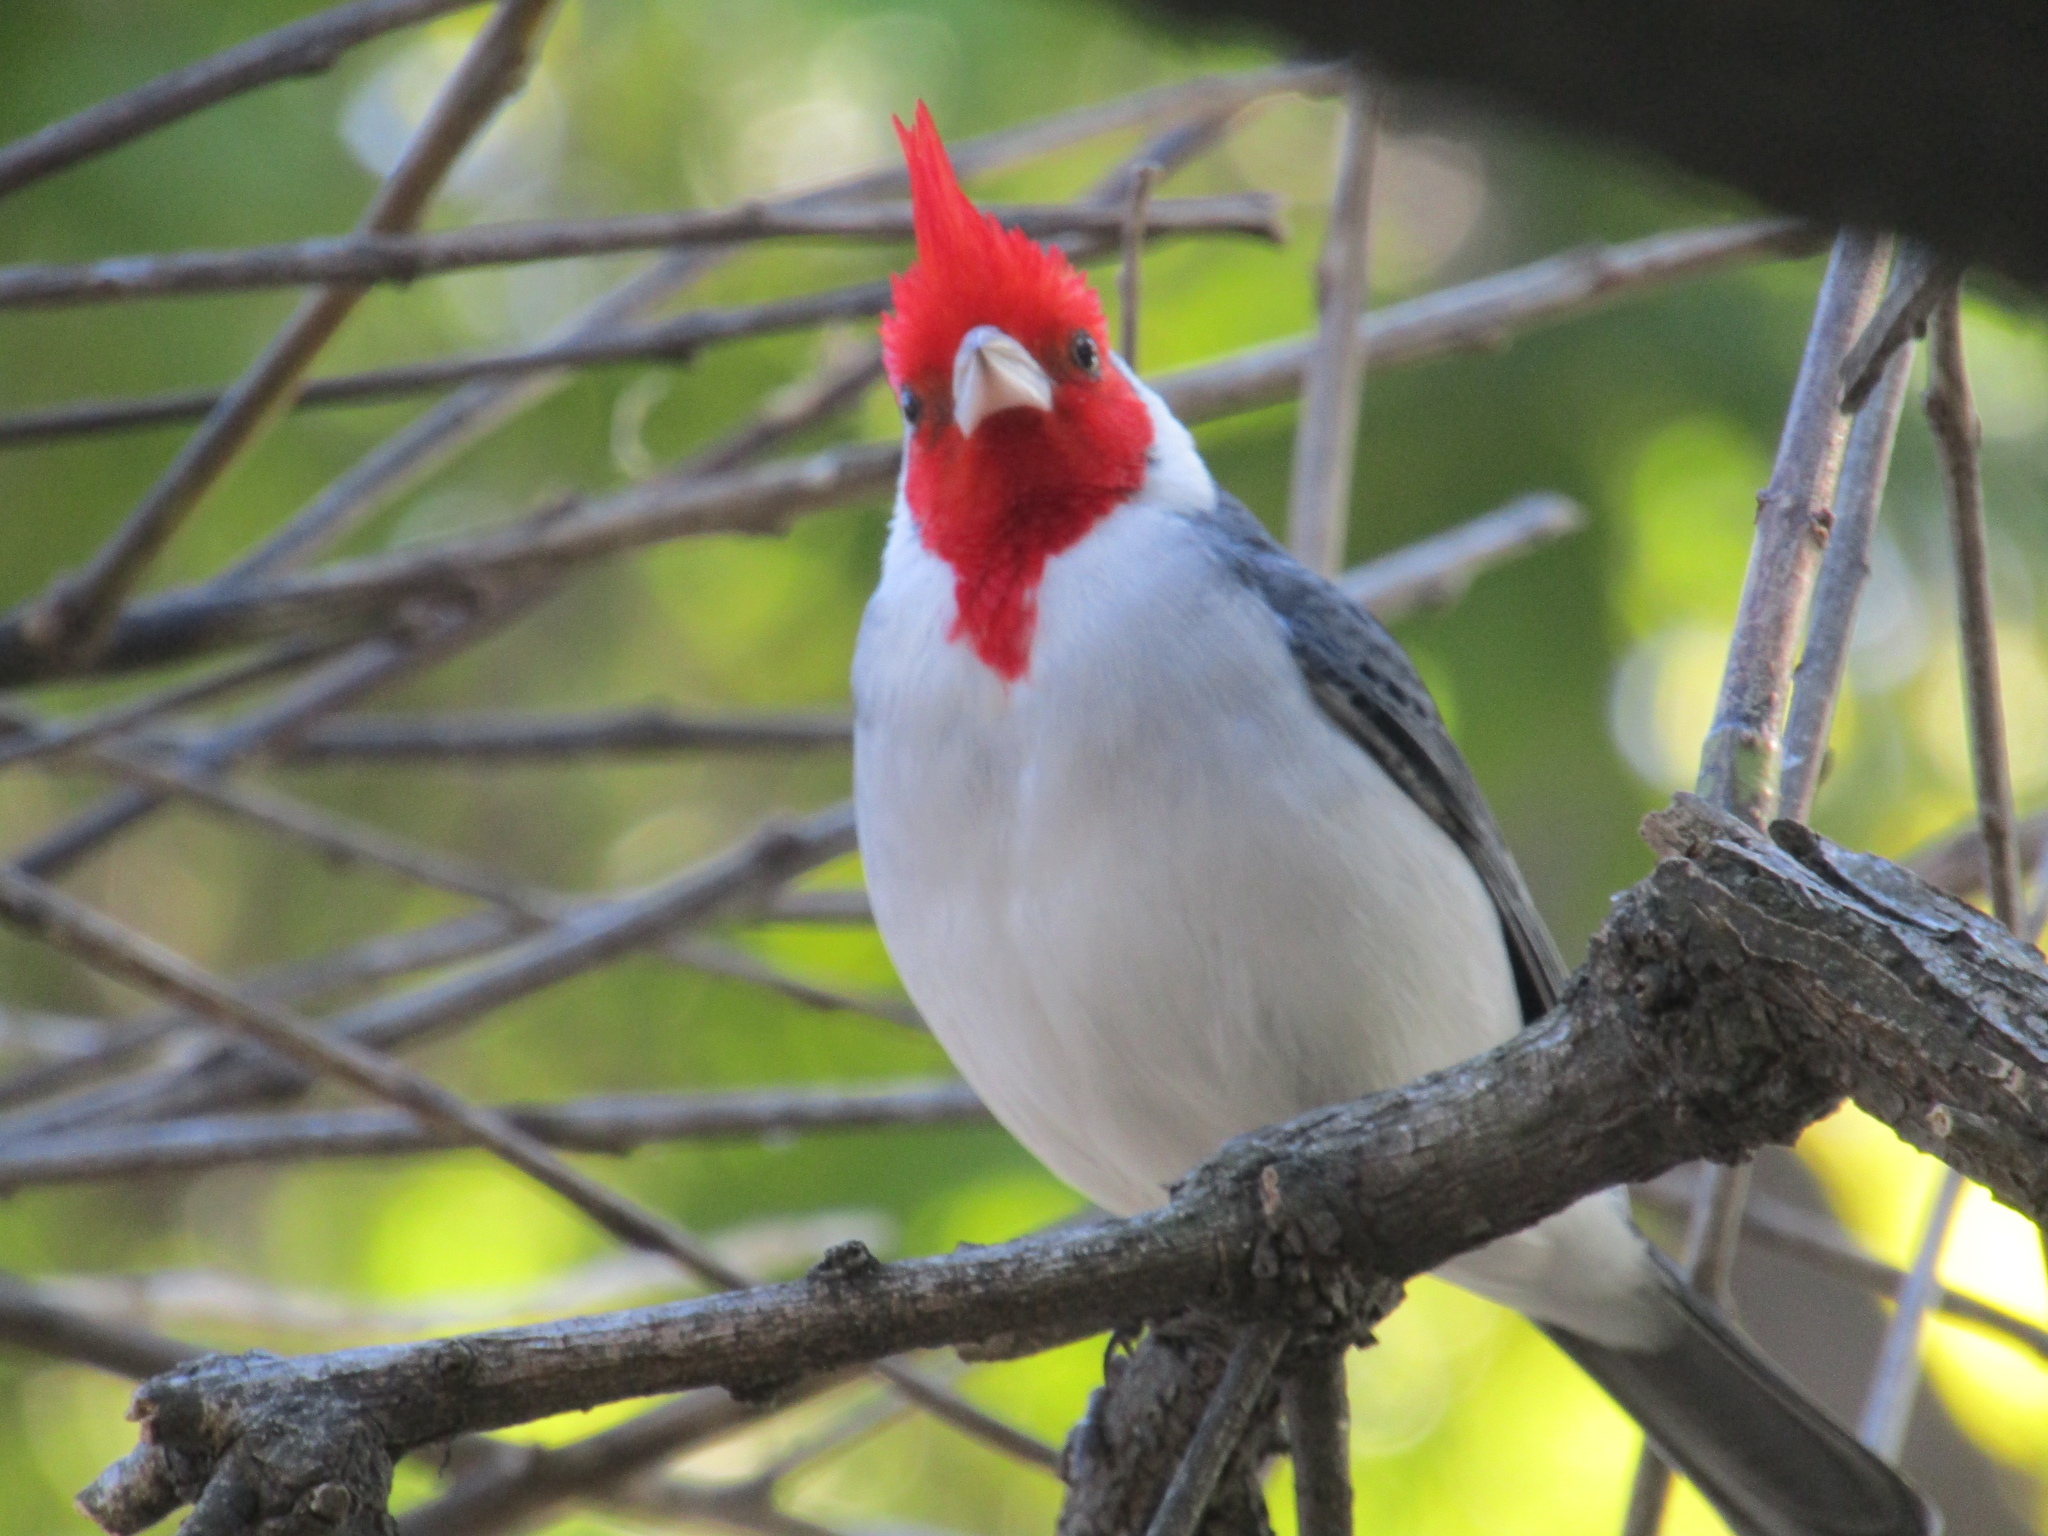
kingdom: Animalia
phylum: Chordata
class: Aves
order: Passeriformes
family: Thraupidae
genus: Paroaria
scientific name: Paroaria coronata
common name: Red-crested cardinal
